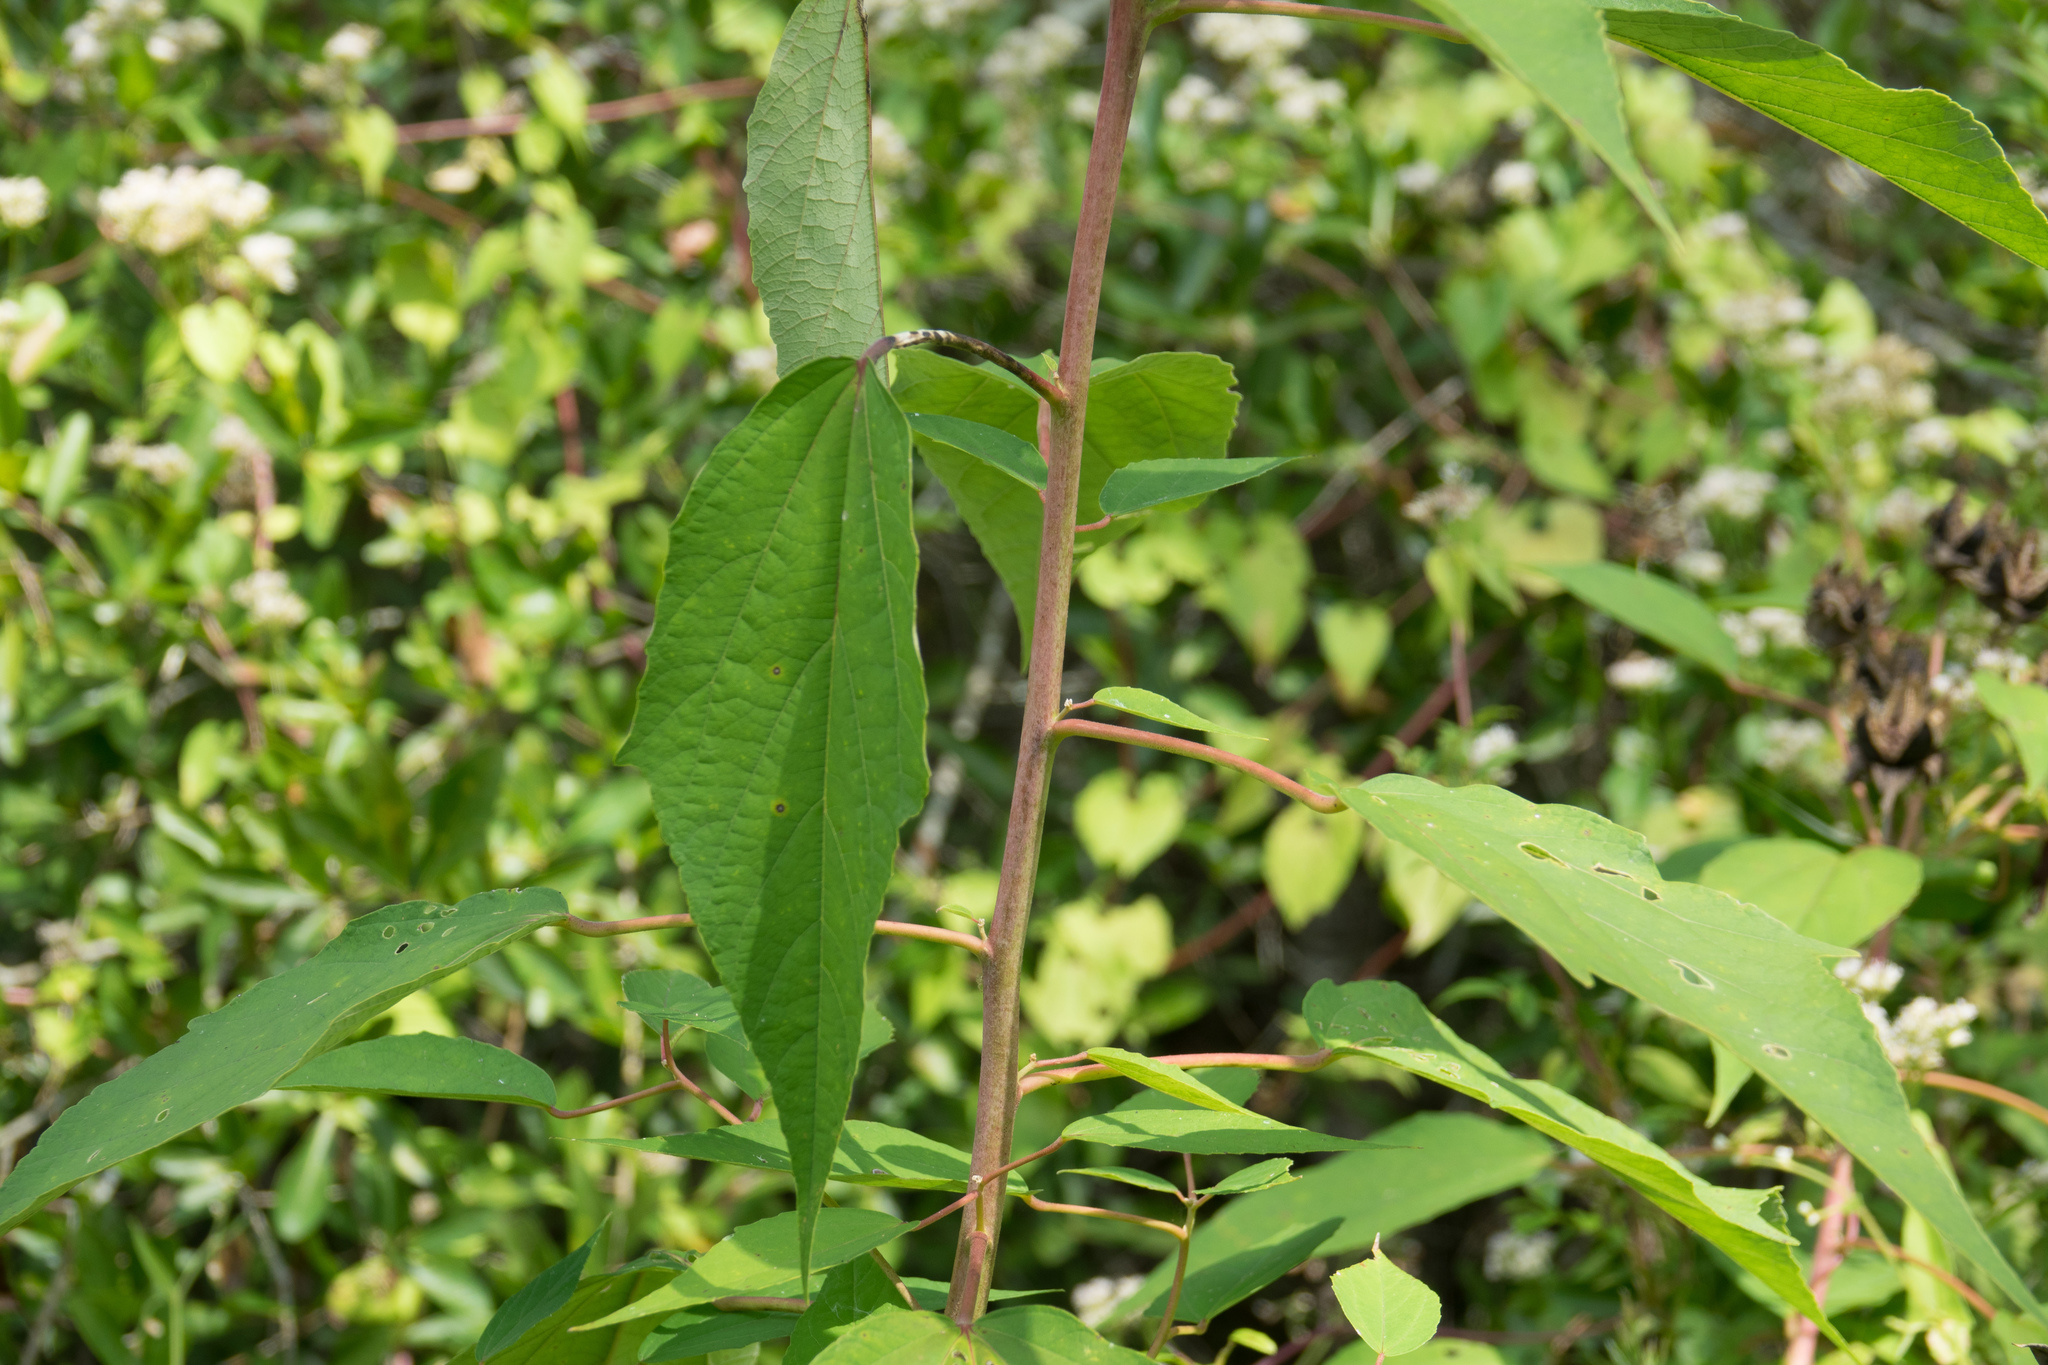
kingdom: Plantae
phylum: Tracheophyta
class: Magnoliopsida
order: Malvales
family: Malvaceae
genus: Hibiscus
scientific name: Hibiscus moscheutos
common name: Common rose-mallow
